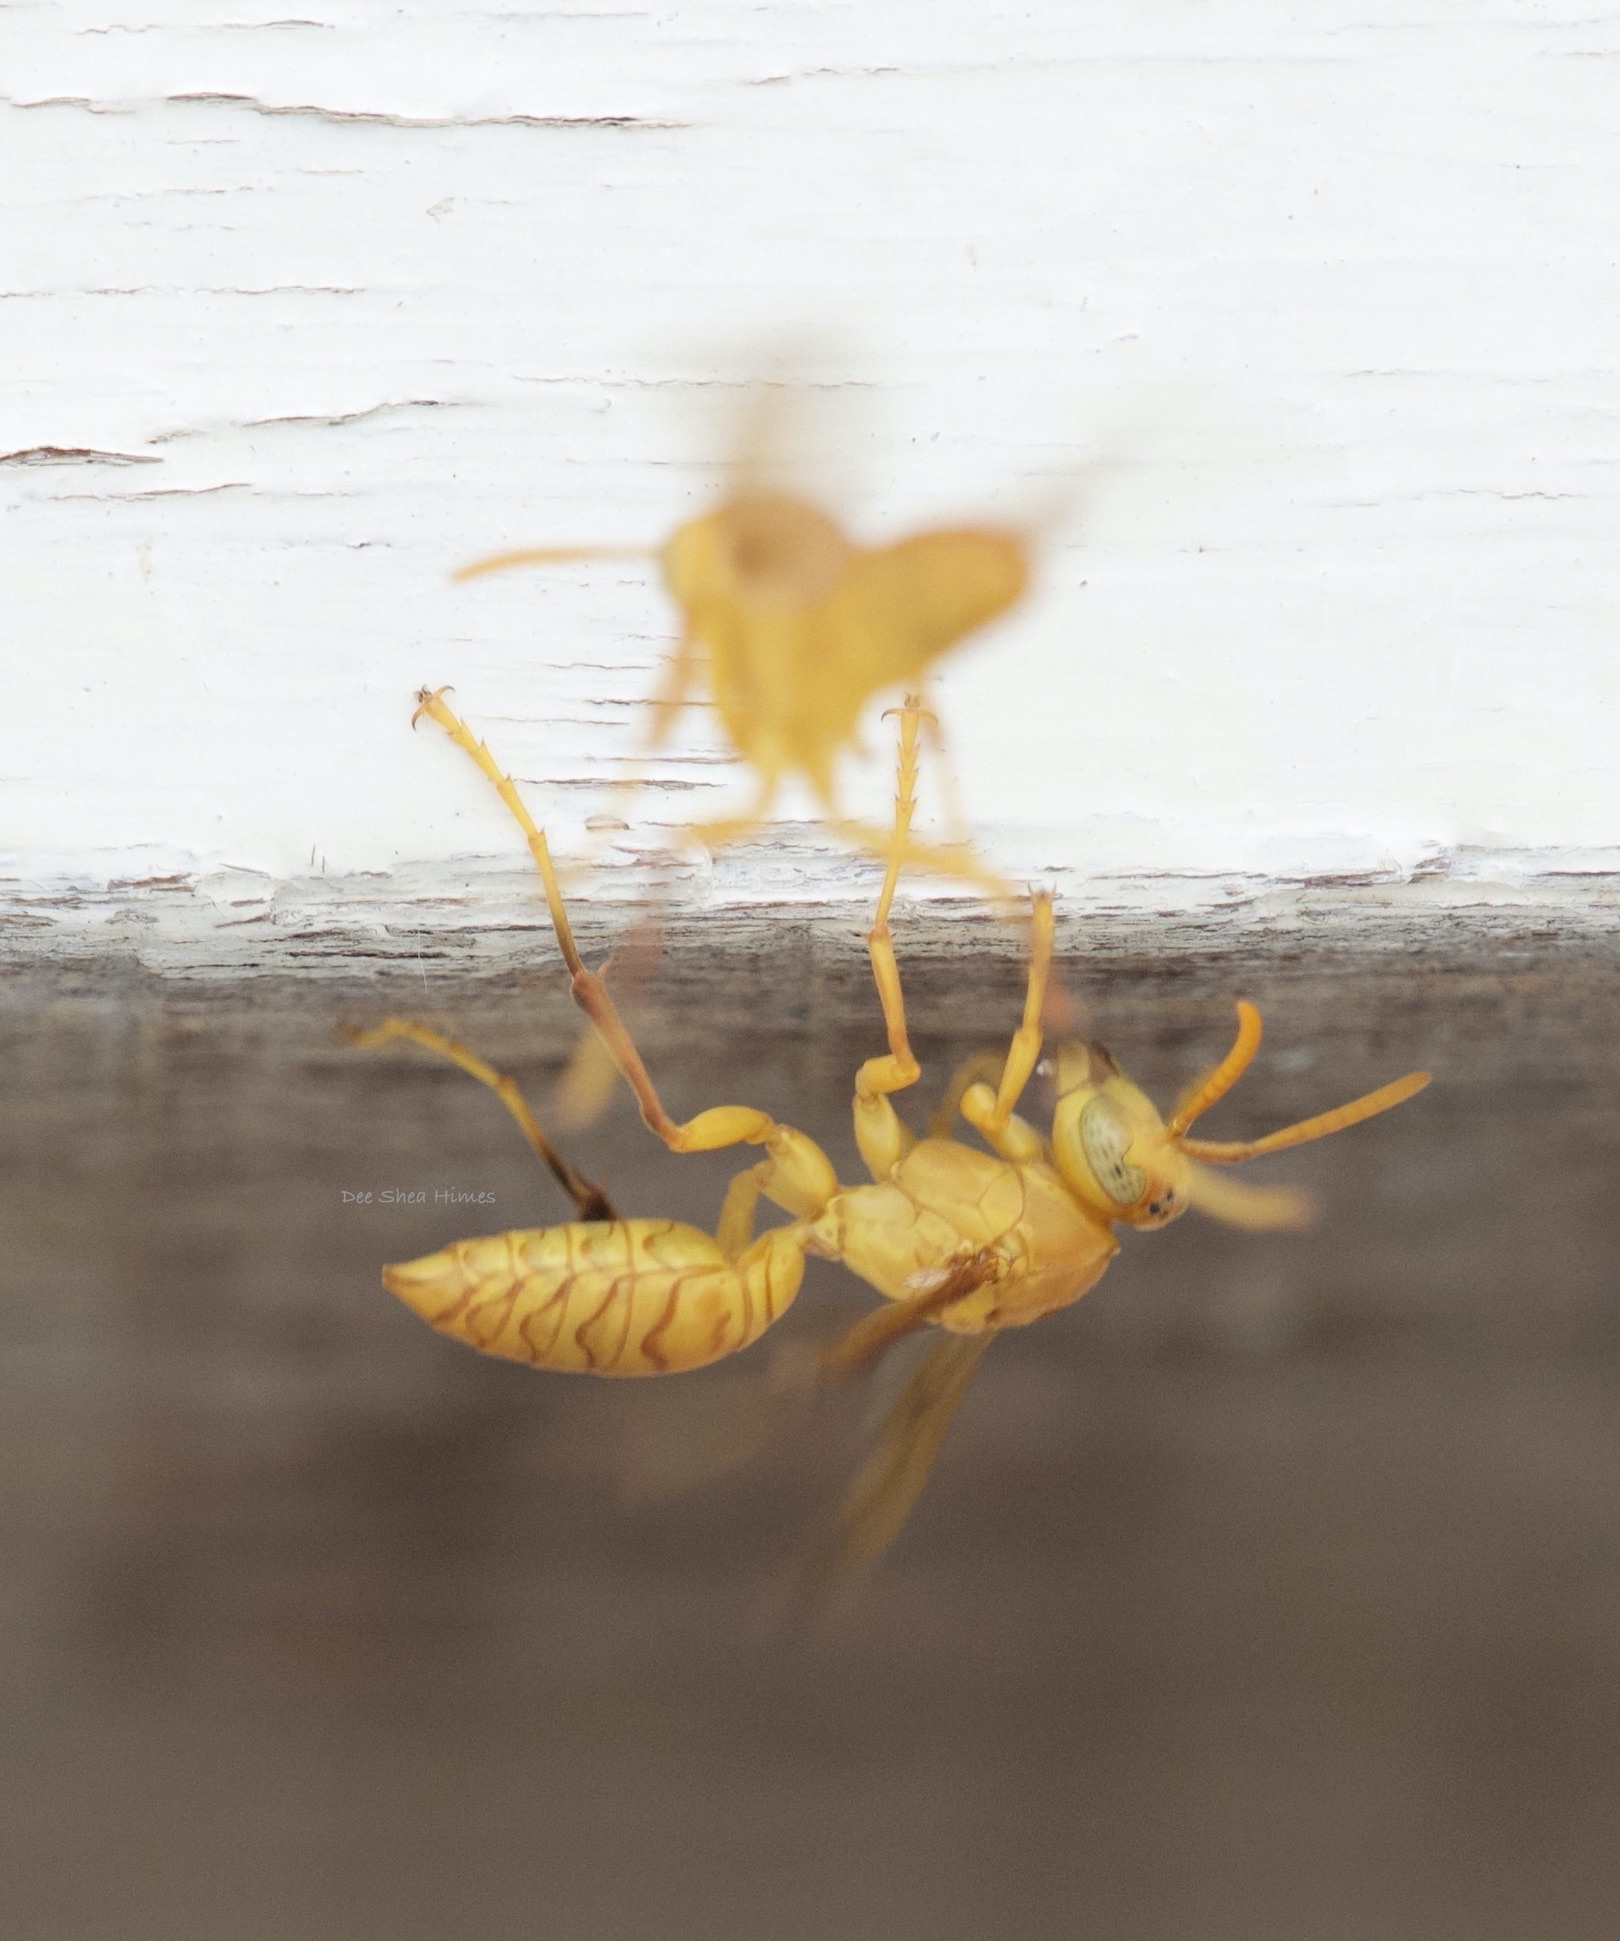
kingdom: Animalia
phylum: Arthropoda
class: Insecta
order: Hymenoptera
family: Eumenidae
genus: Polistes
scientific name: Polistes wattii
